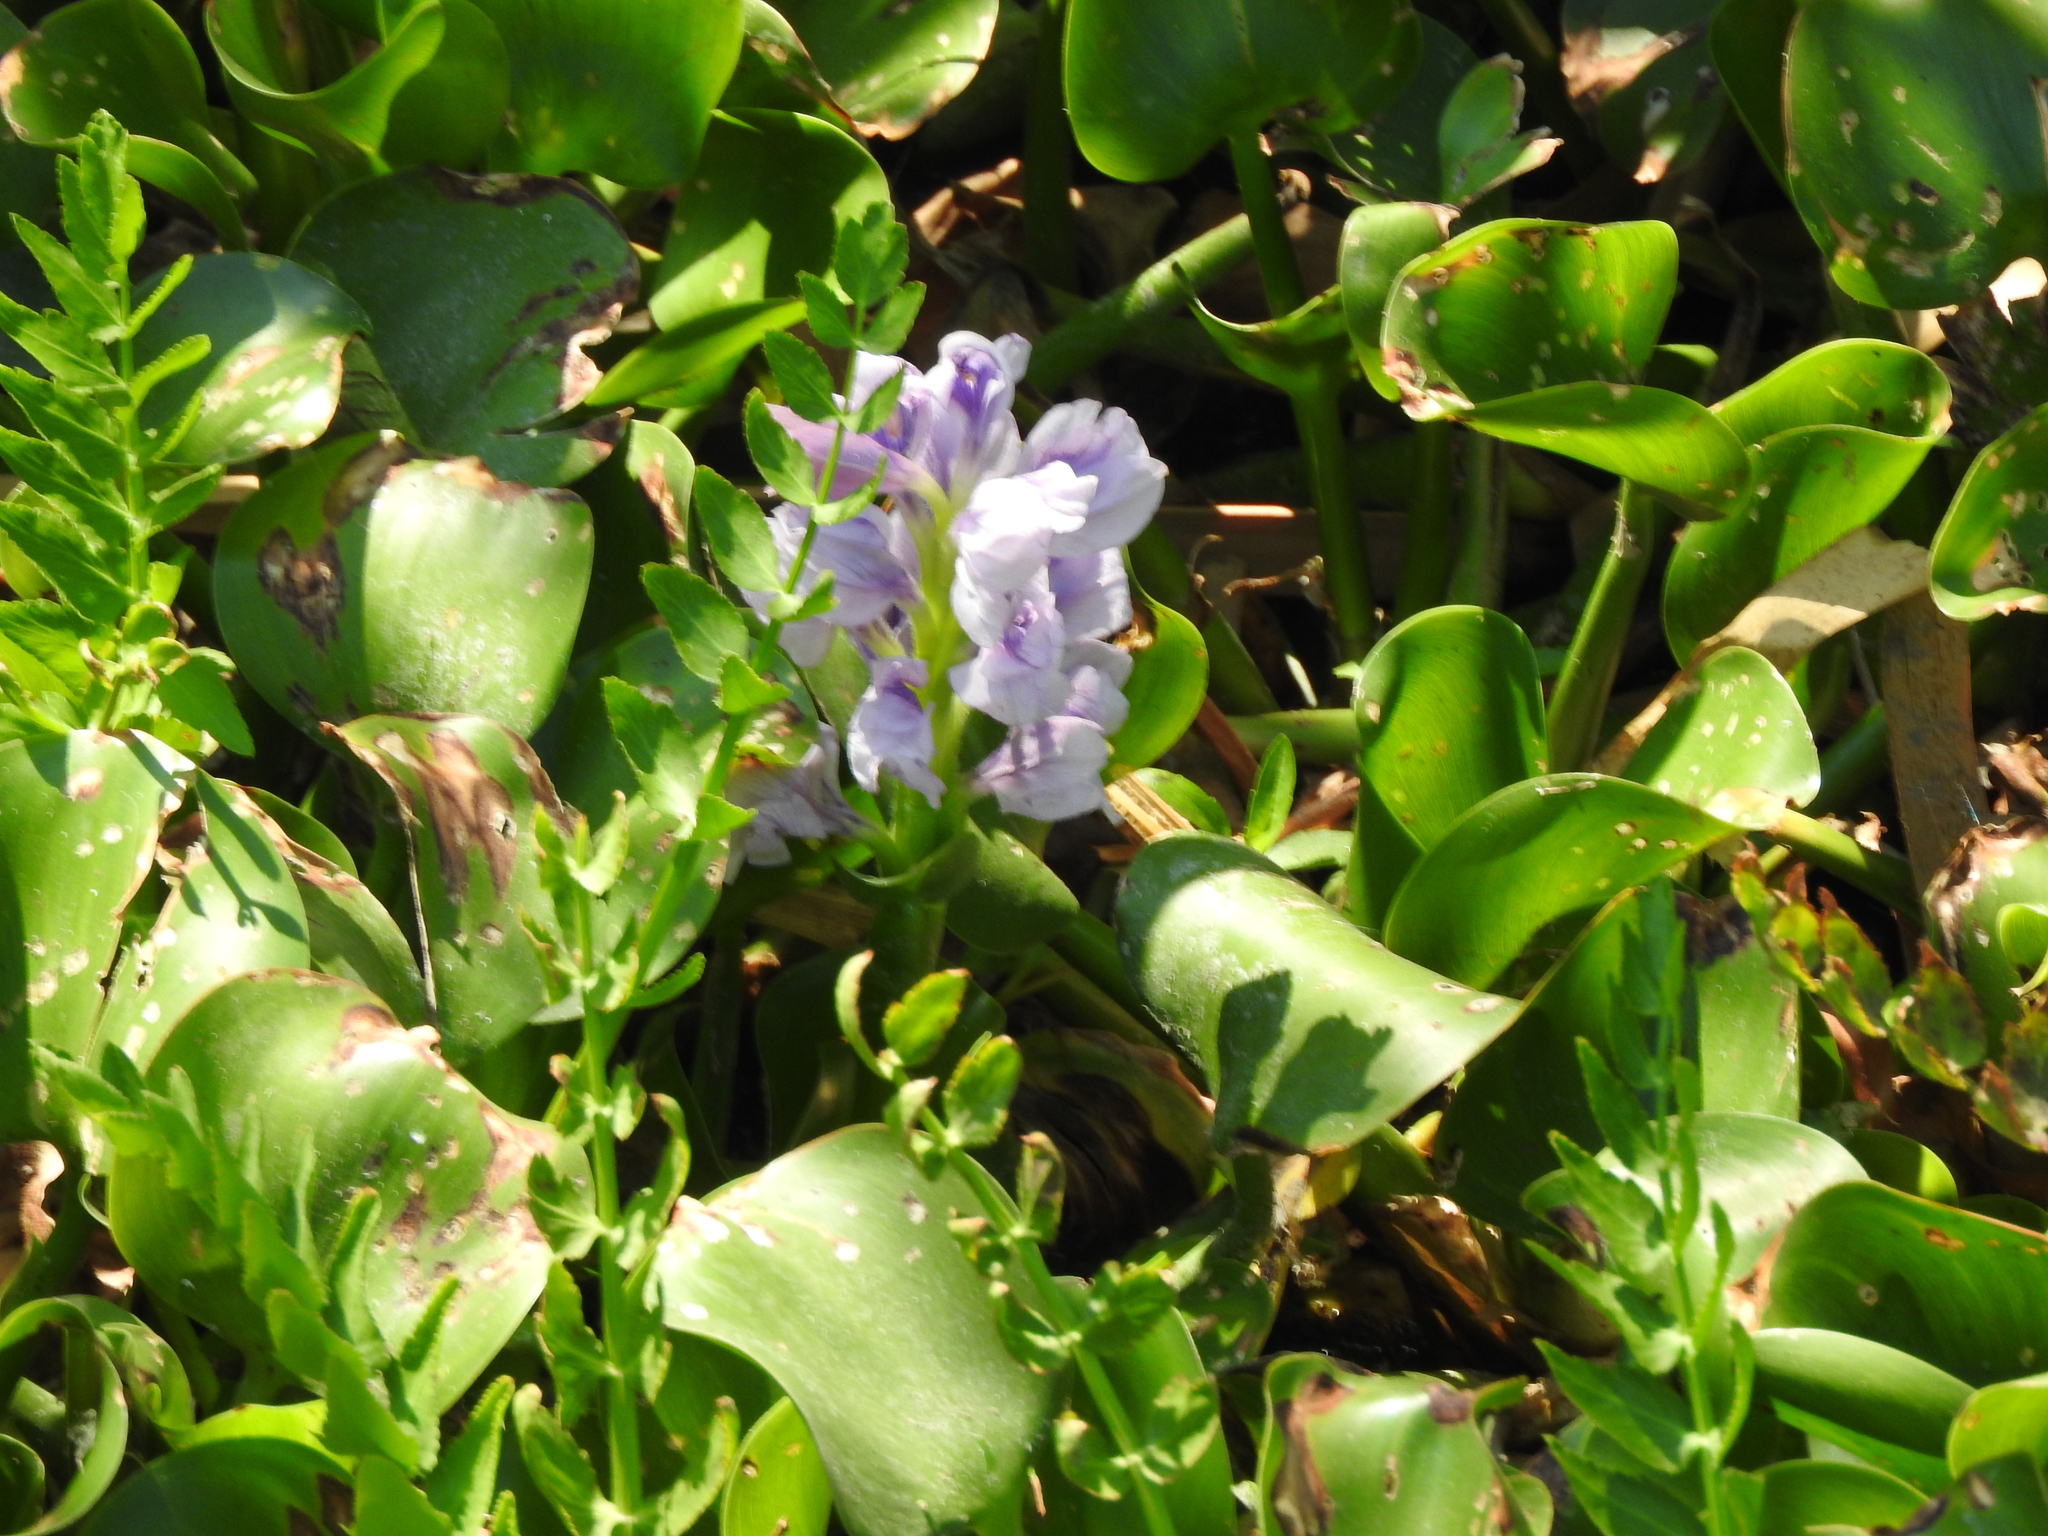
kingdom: Plantae
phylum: Tracheophyta
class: Liliopsida
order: Commelinales
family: Pontederiaceae
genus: Pontederia
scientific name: Pontederia crassipes
